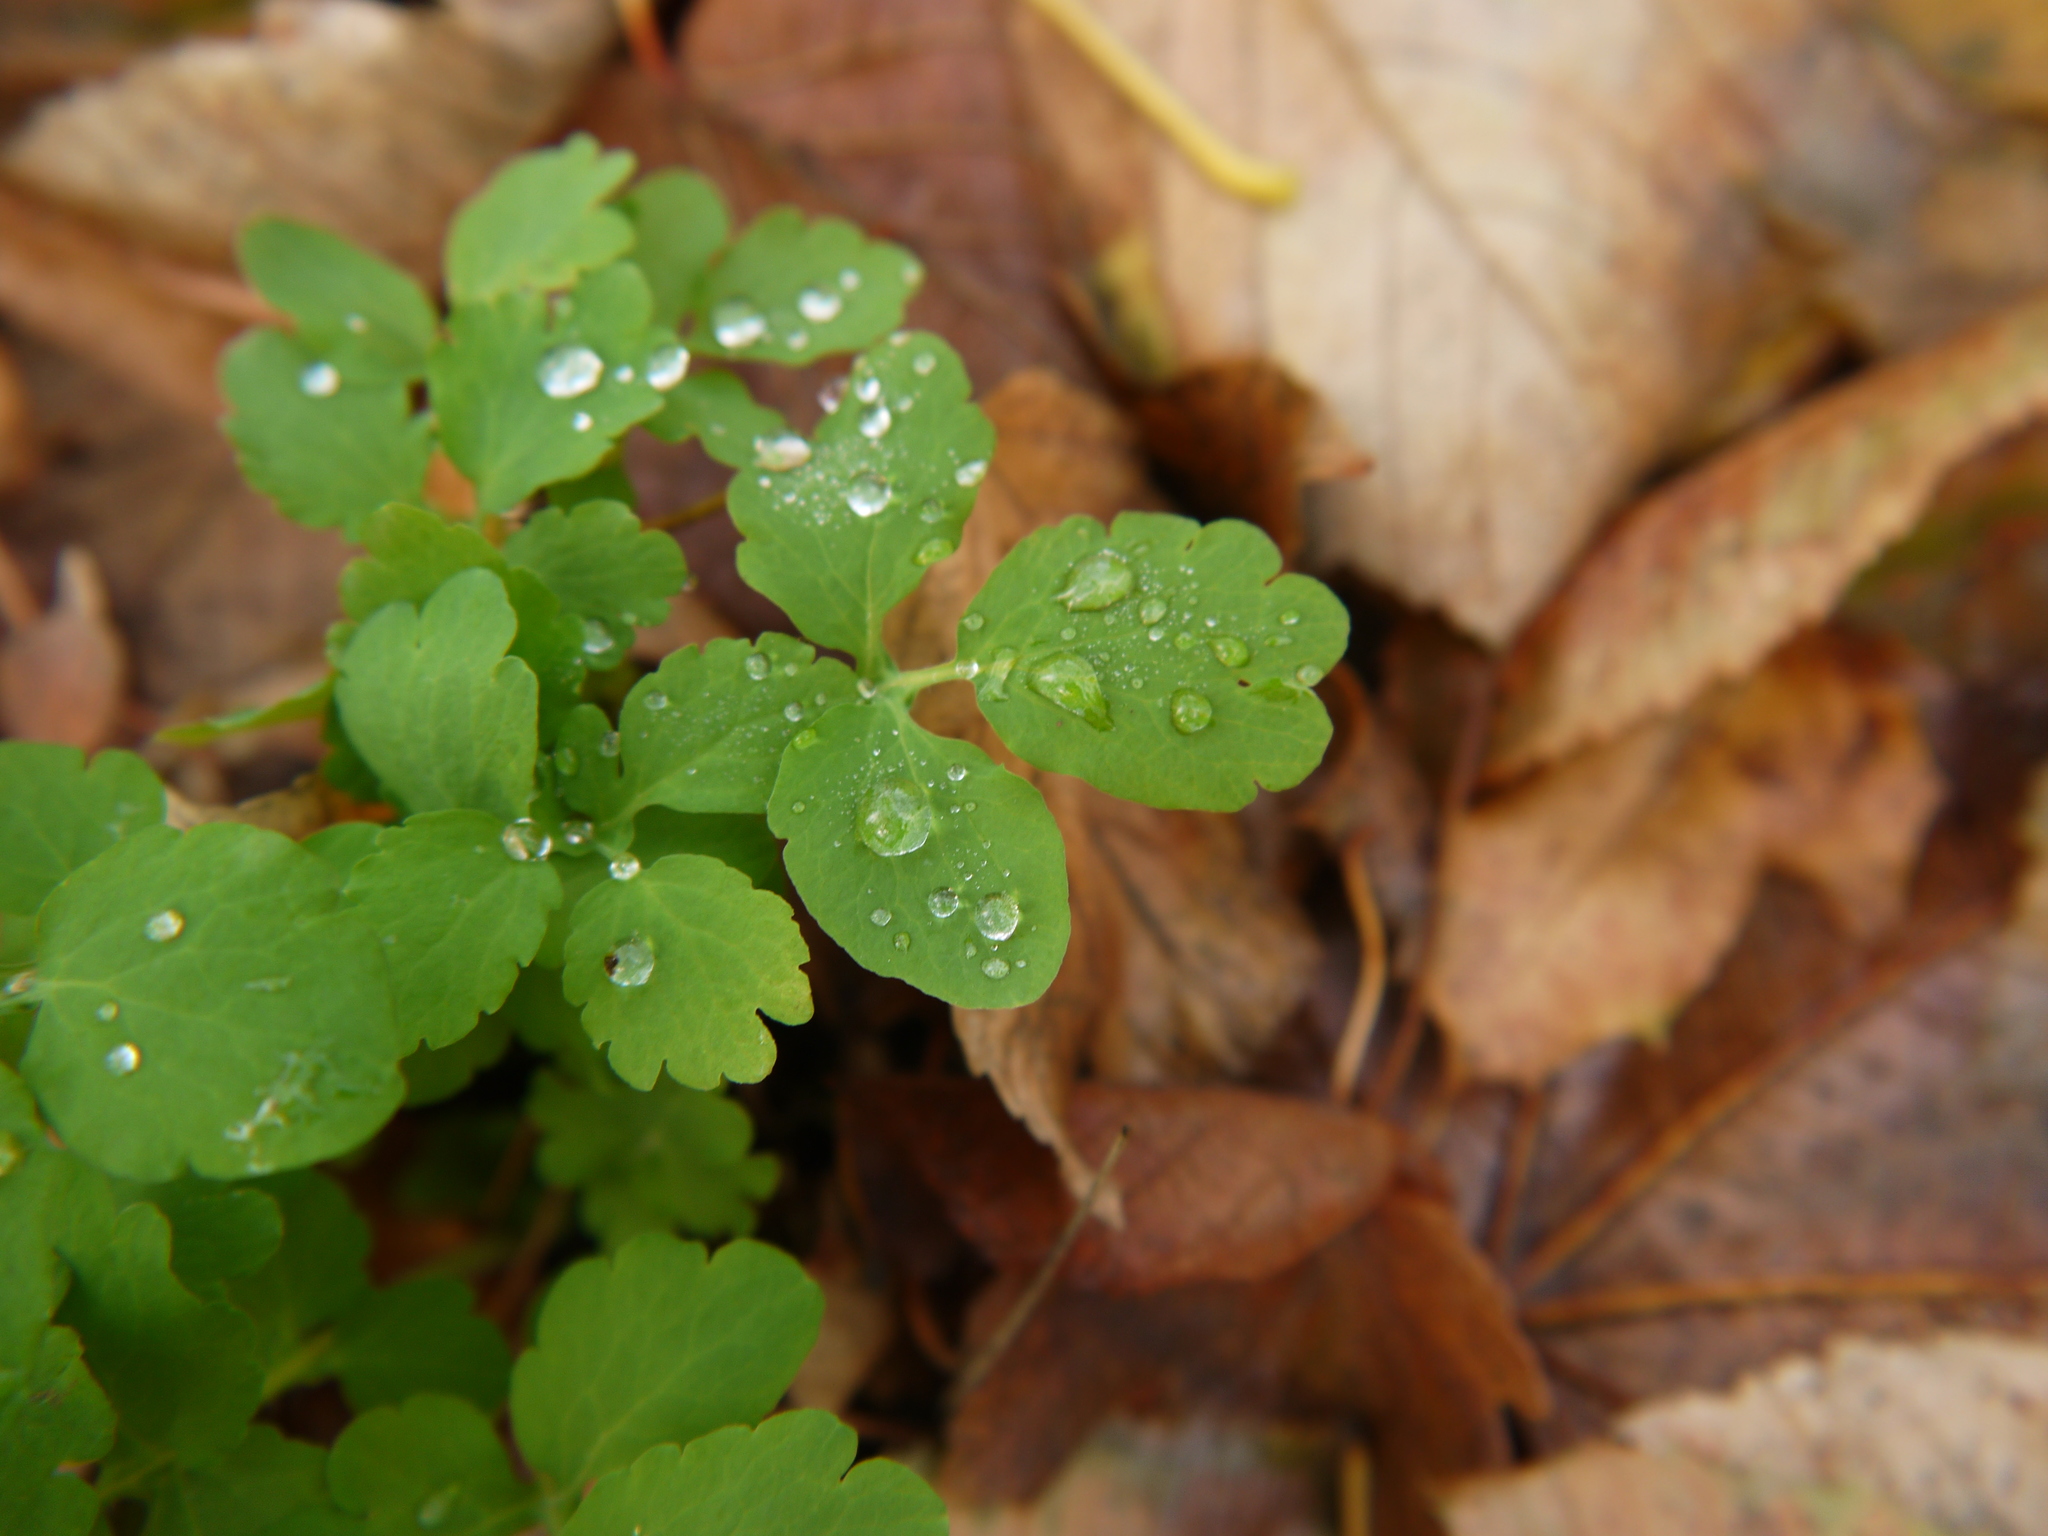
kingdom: Plantae
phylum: Tracheophyta
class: Magnoliopsida
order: Ranunculales
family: Papaveraceae
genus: Chelidonium
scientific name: Chelidonium majus
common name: Greater celandine
